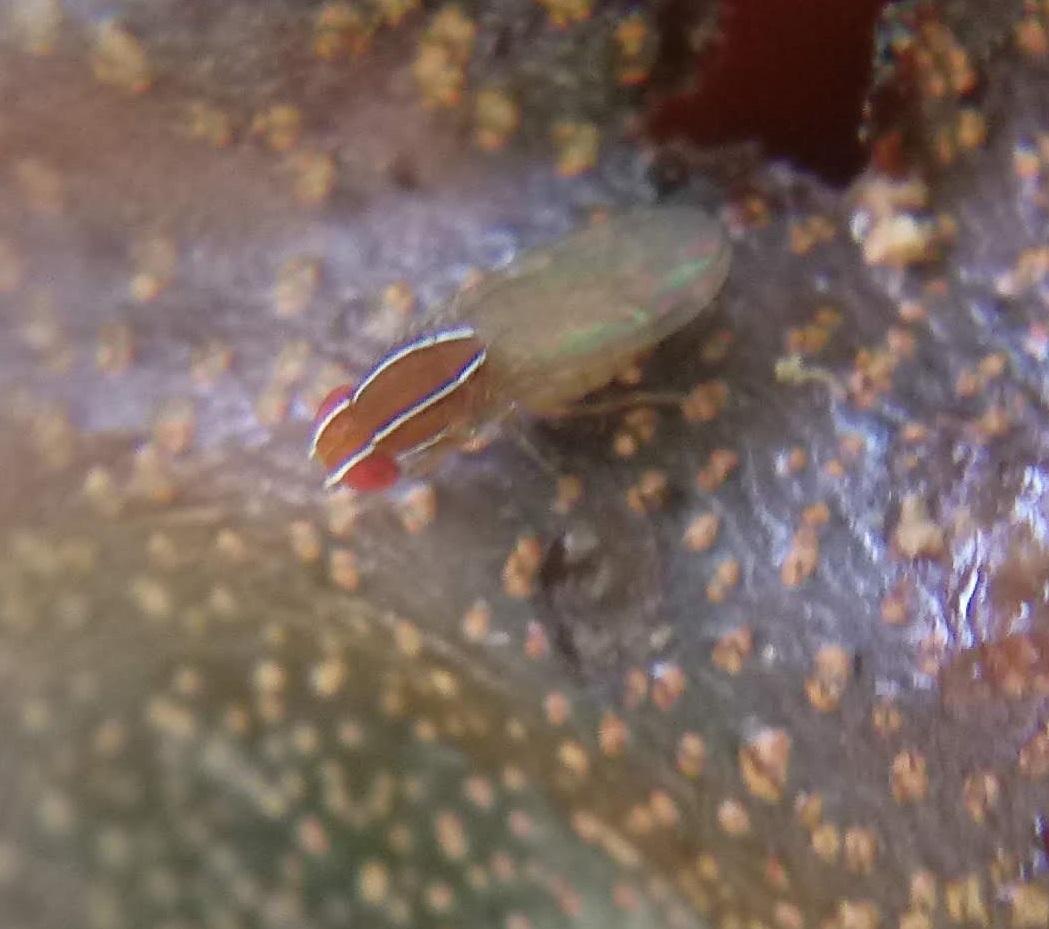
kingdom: Animalia
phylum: Arthropoda
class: Insecta
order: Diptera
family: Drosophilidae
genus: Zaprionus
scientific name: Zaprionus indianus
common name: African fig fly
